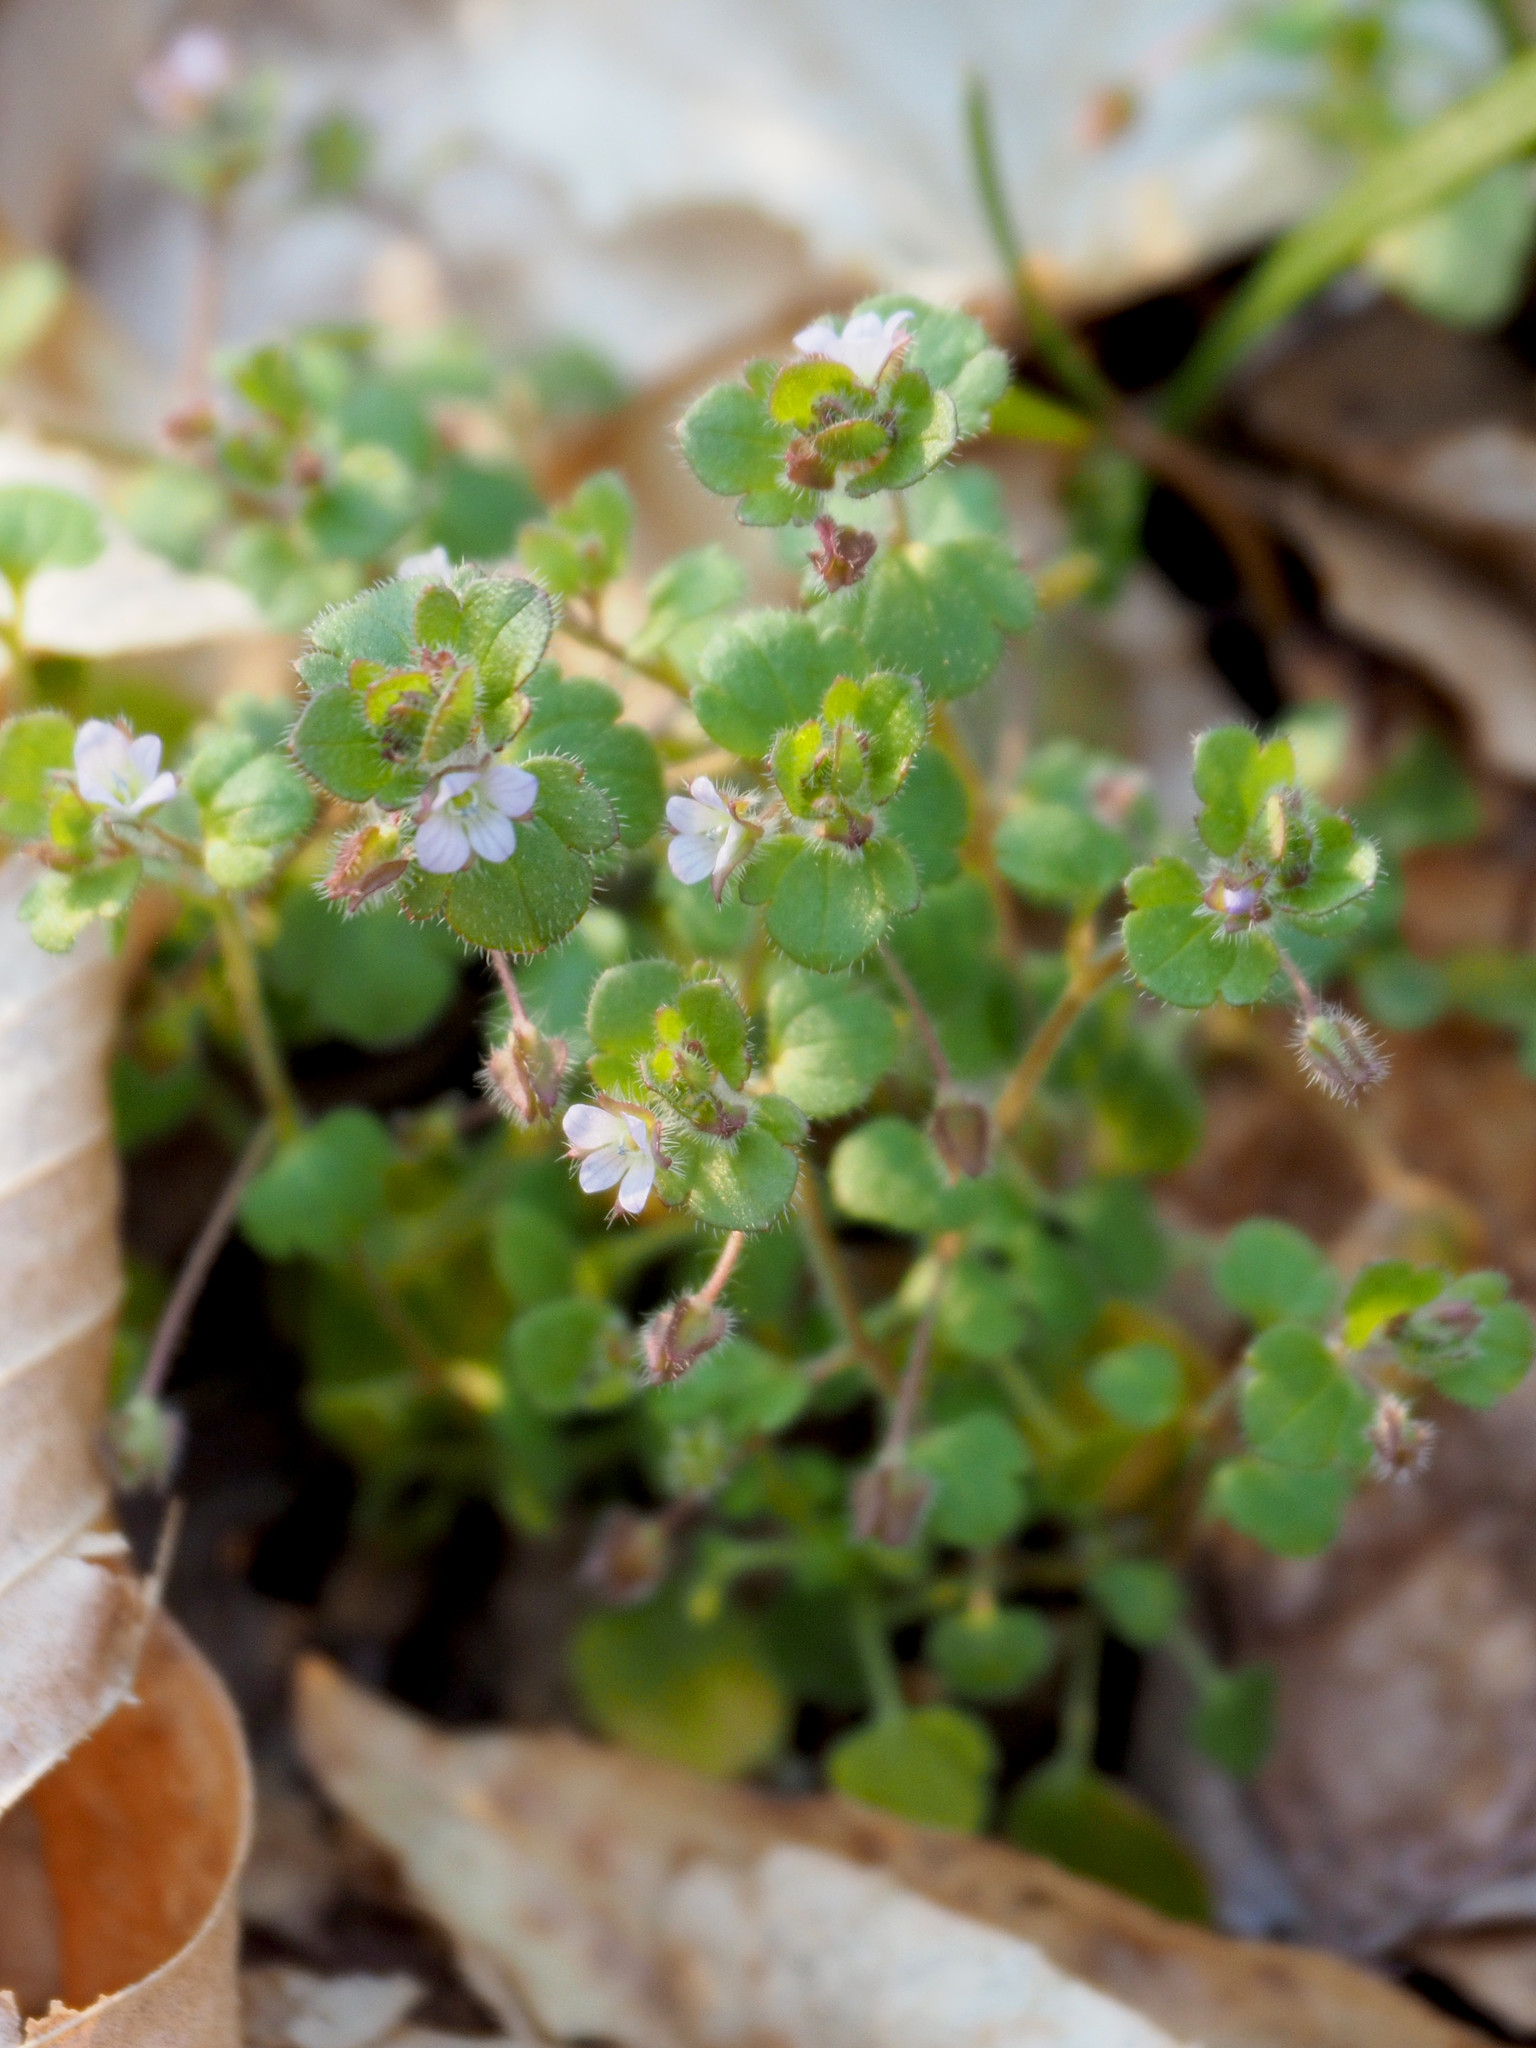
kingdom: Plantae
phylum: Tracheophyta
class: Magnoliopsida
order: Lamiales
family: Plantaginaceae
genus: Veronica
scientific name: Veronica sublobata
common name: False ivy-leaved speedwell
